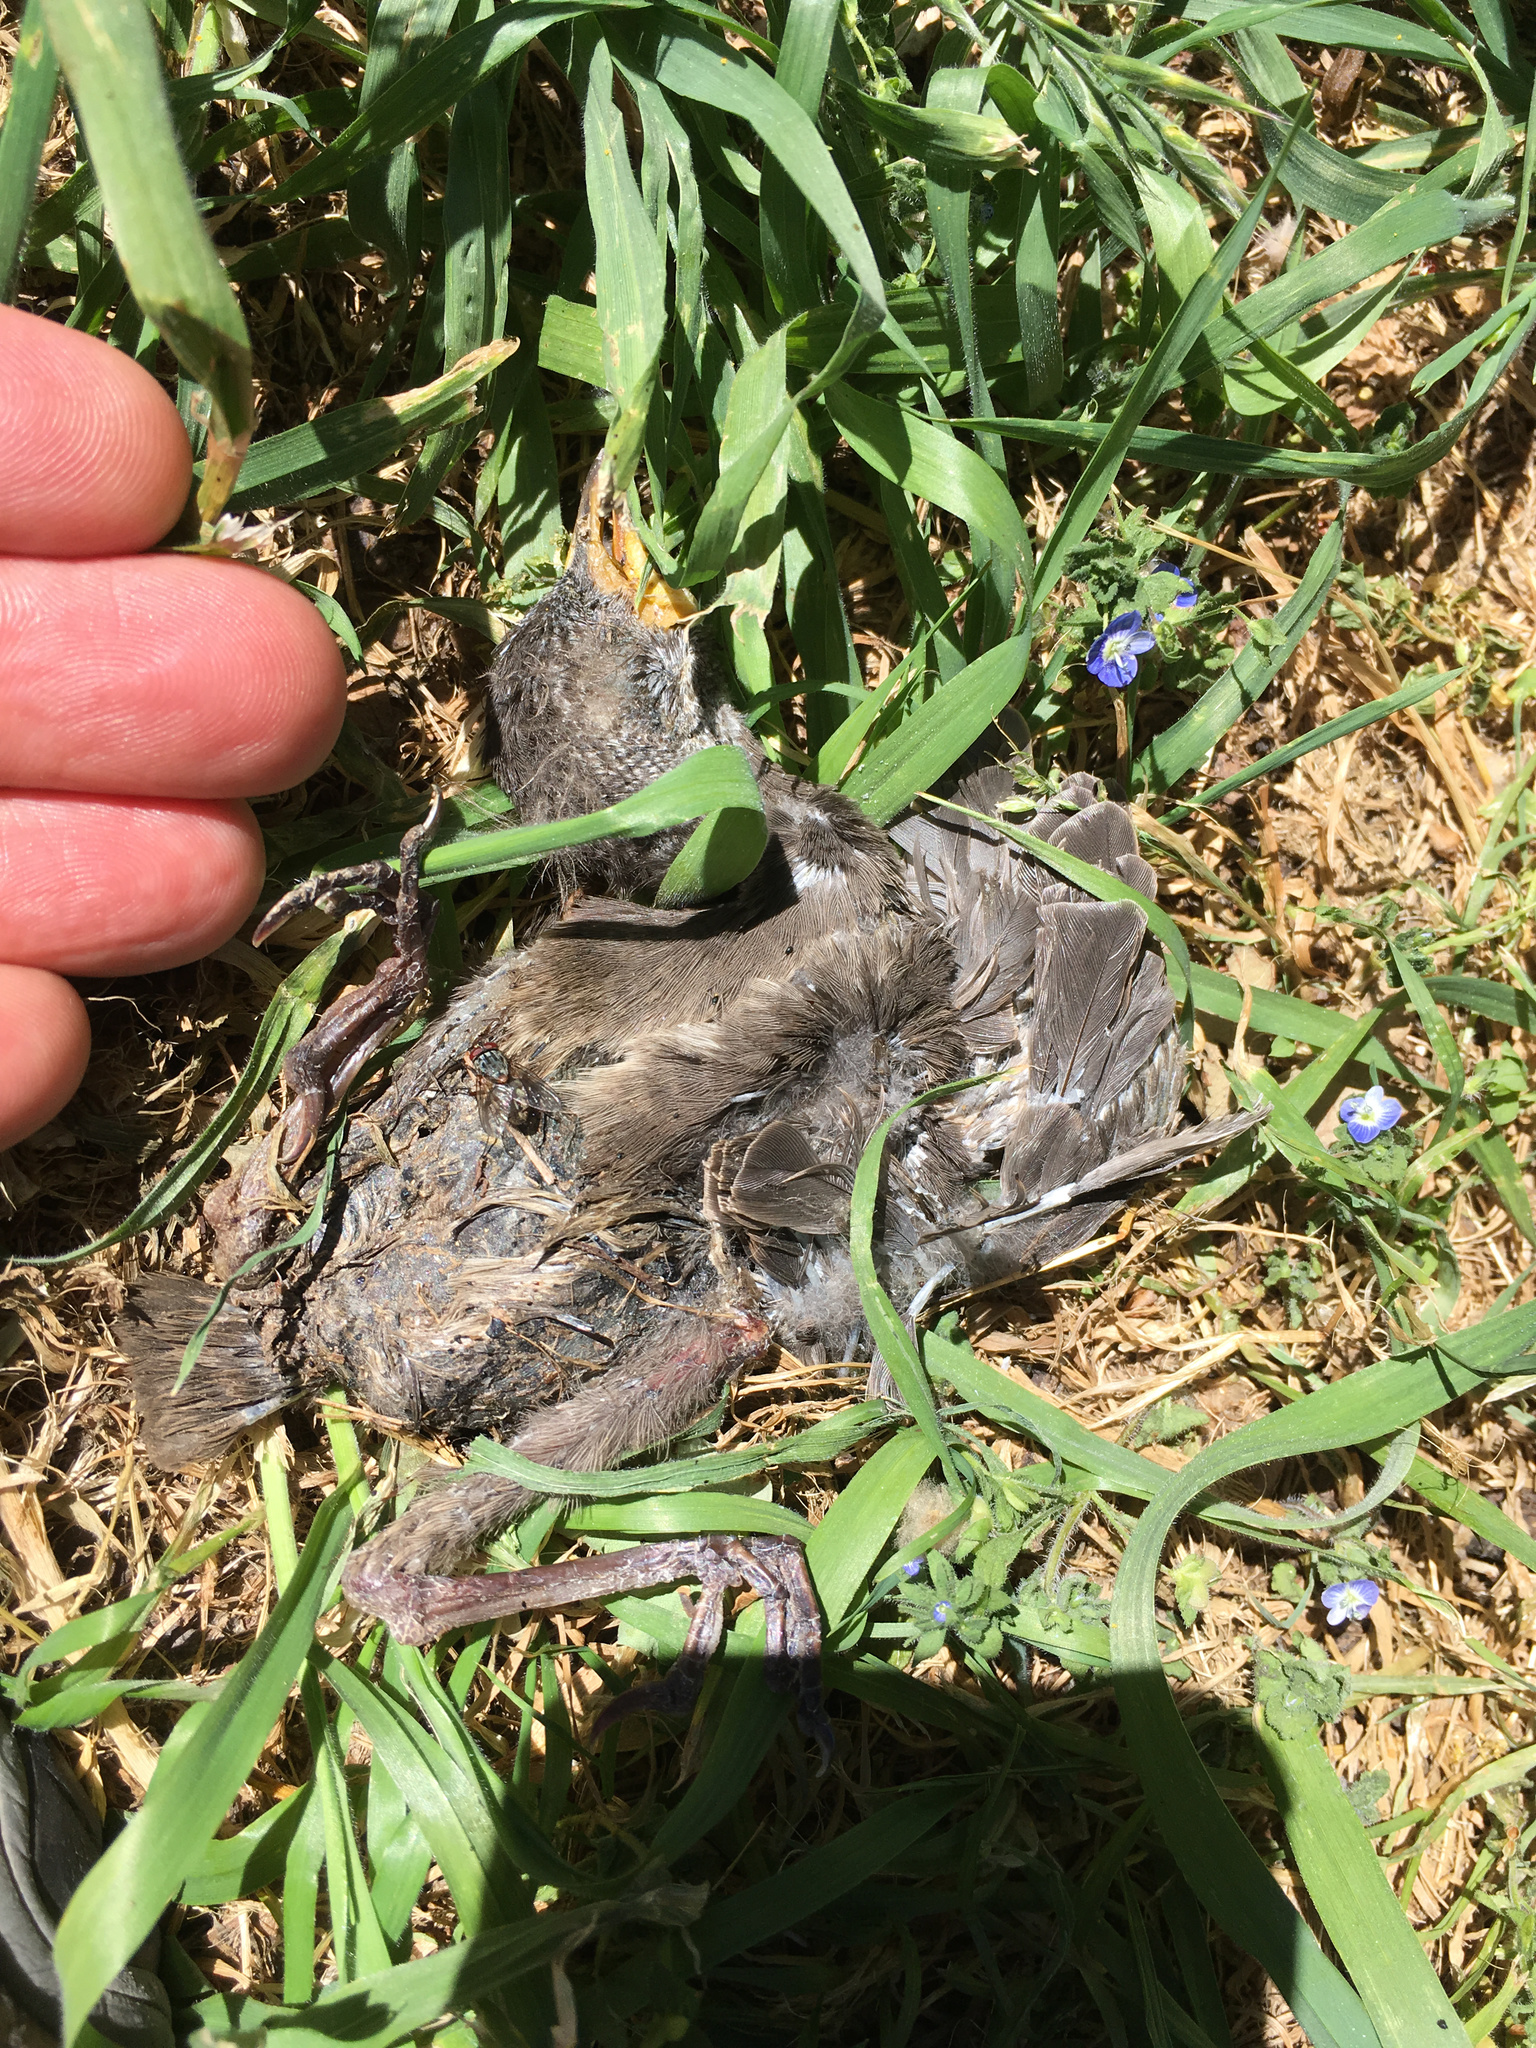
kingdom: Animalia
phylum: Chordata
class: Aves
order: Passeriformes
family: Turdidae
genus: Turdus
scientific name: Turdus merula
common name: Common blackbird
